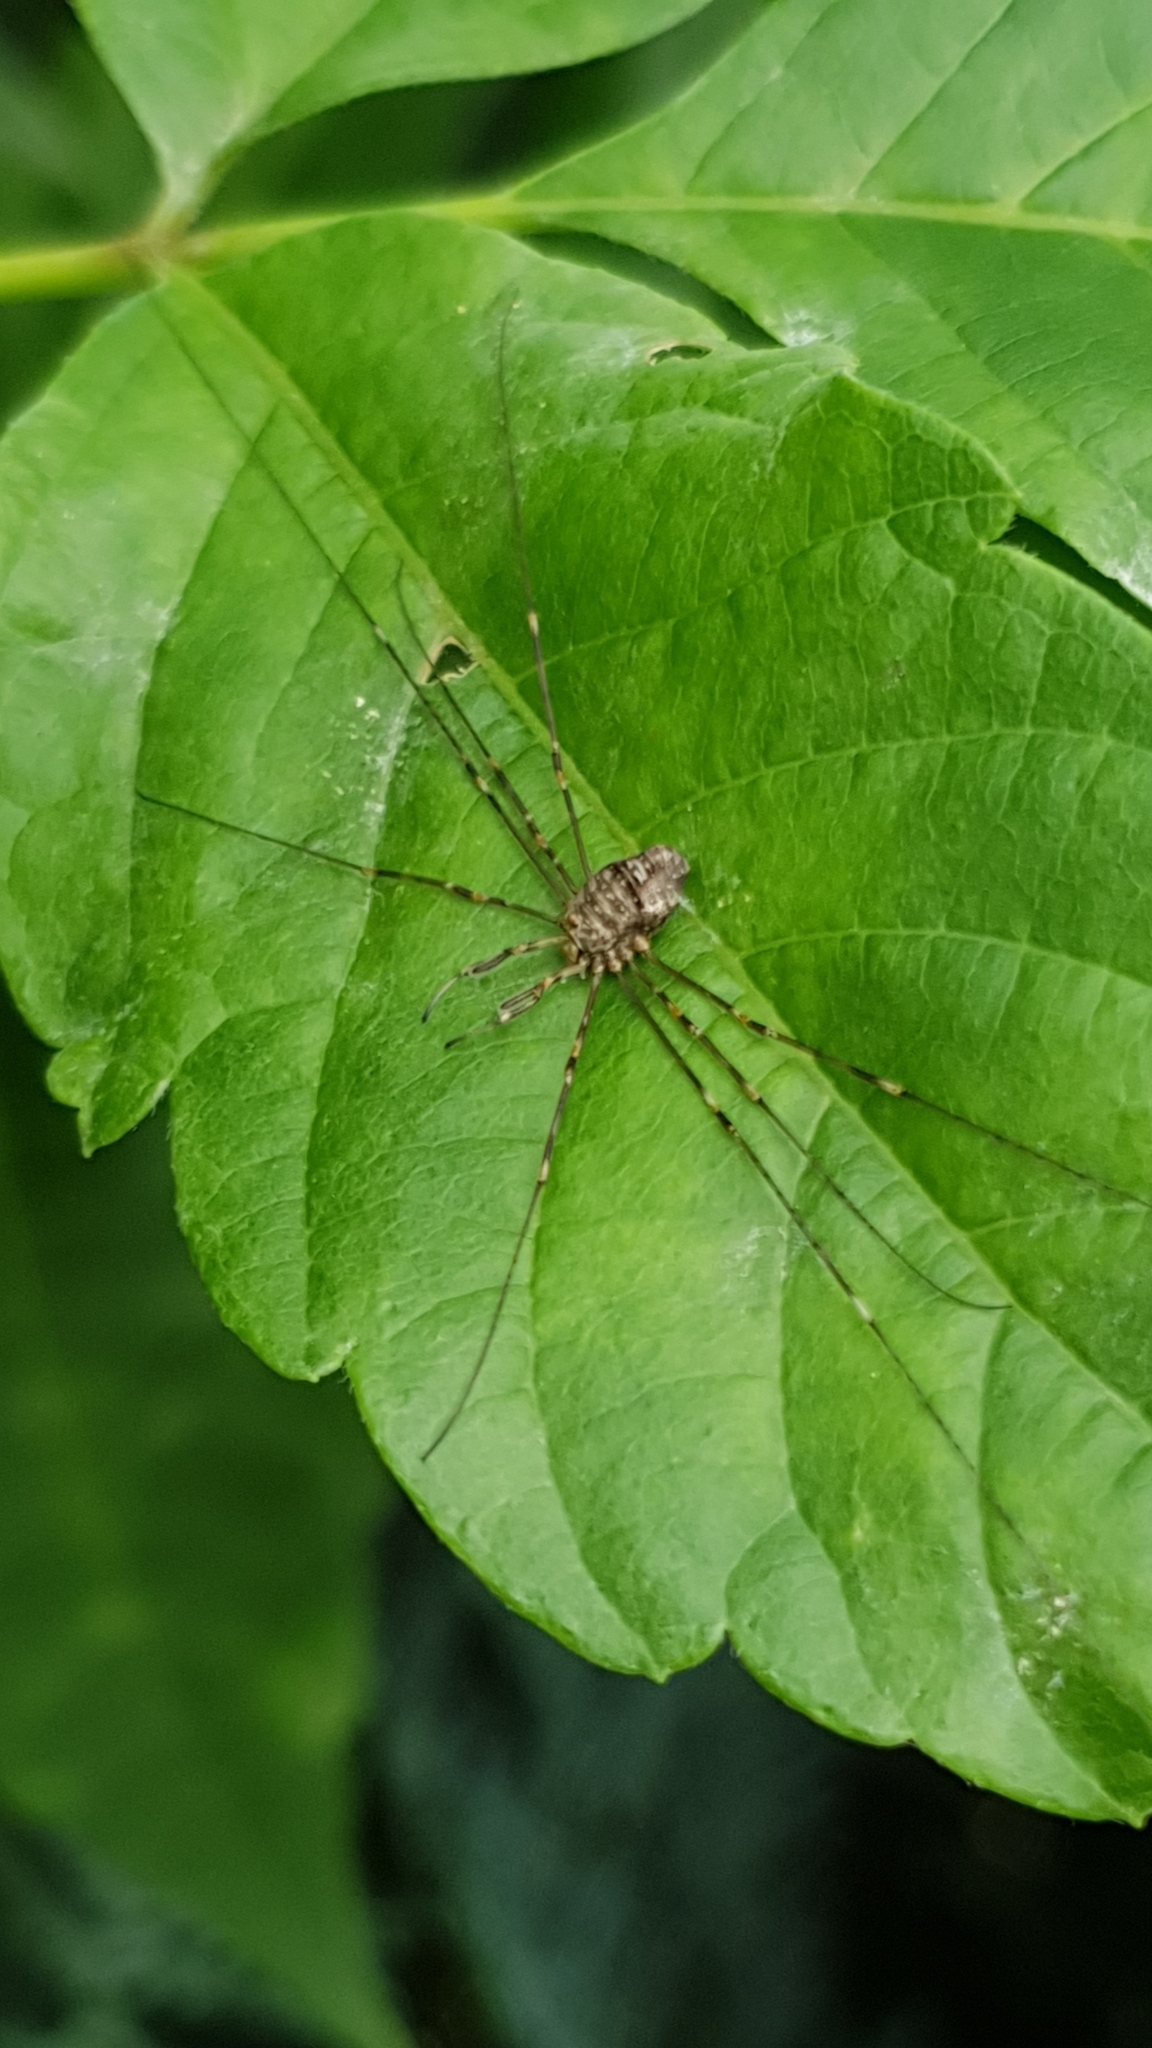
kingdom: Animalia
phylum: Arthropoda
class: Arachnida
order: Opiliones
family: Phalangiidae
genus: Dicranopalpus
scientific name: Dicranopalpus ramosus
